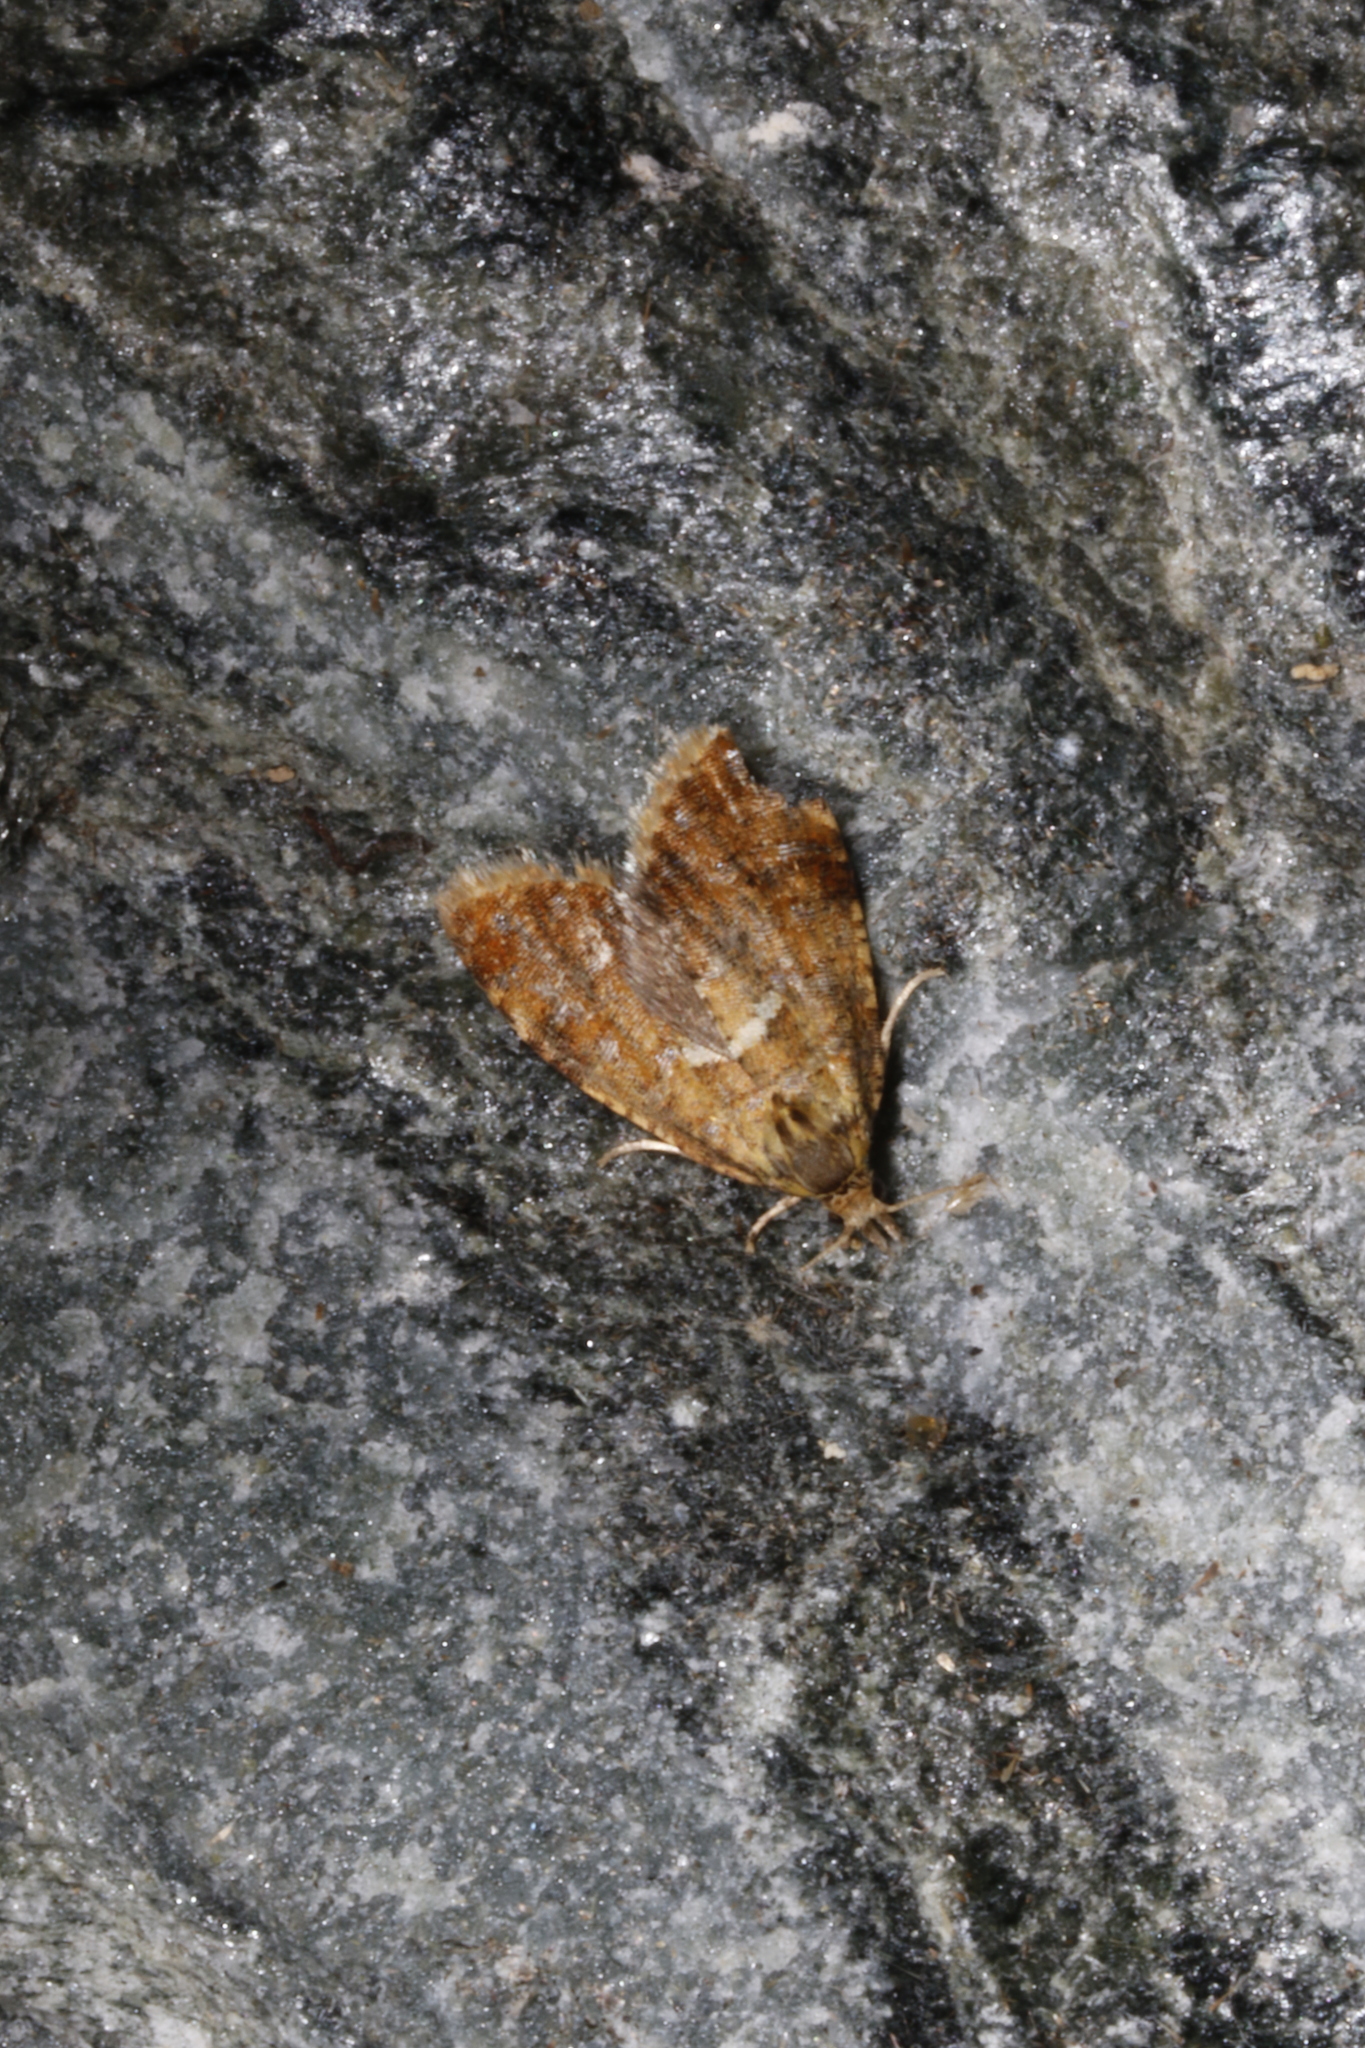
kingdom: Animalia
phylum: Arthropoda
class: Insecta
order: Lepidoptera
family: Tortricidae
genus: Pseudargyrotoza
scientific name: Pseudargyrotoza conwagana
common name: Yellow-spot twist
